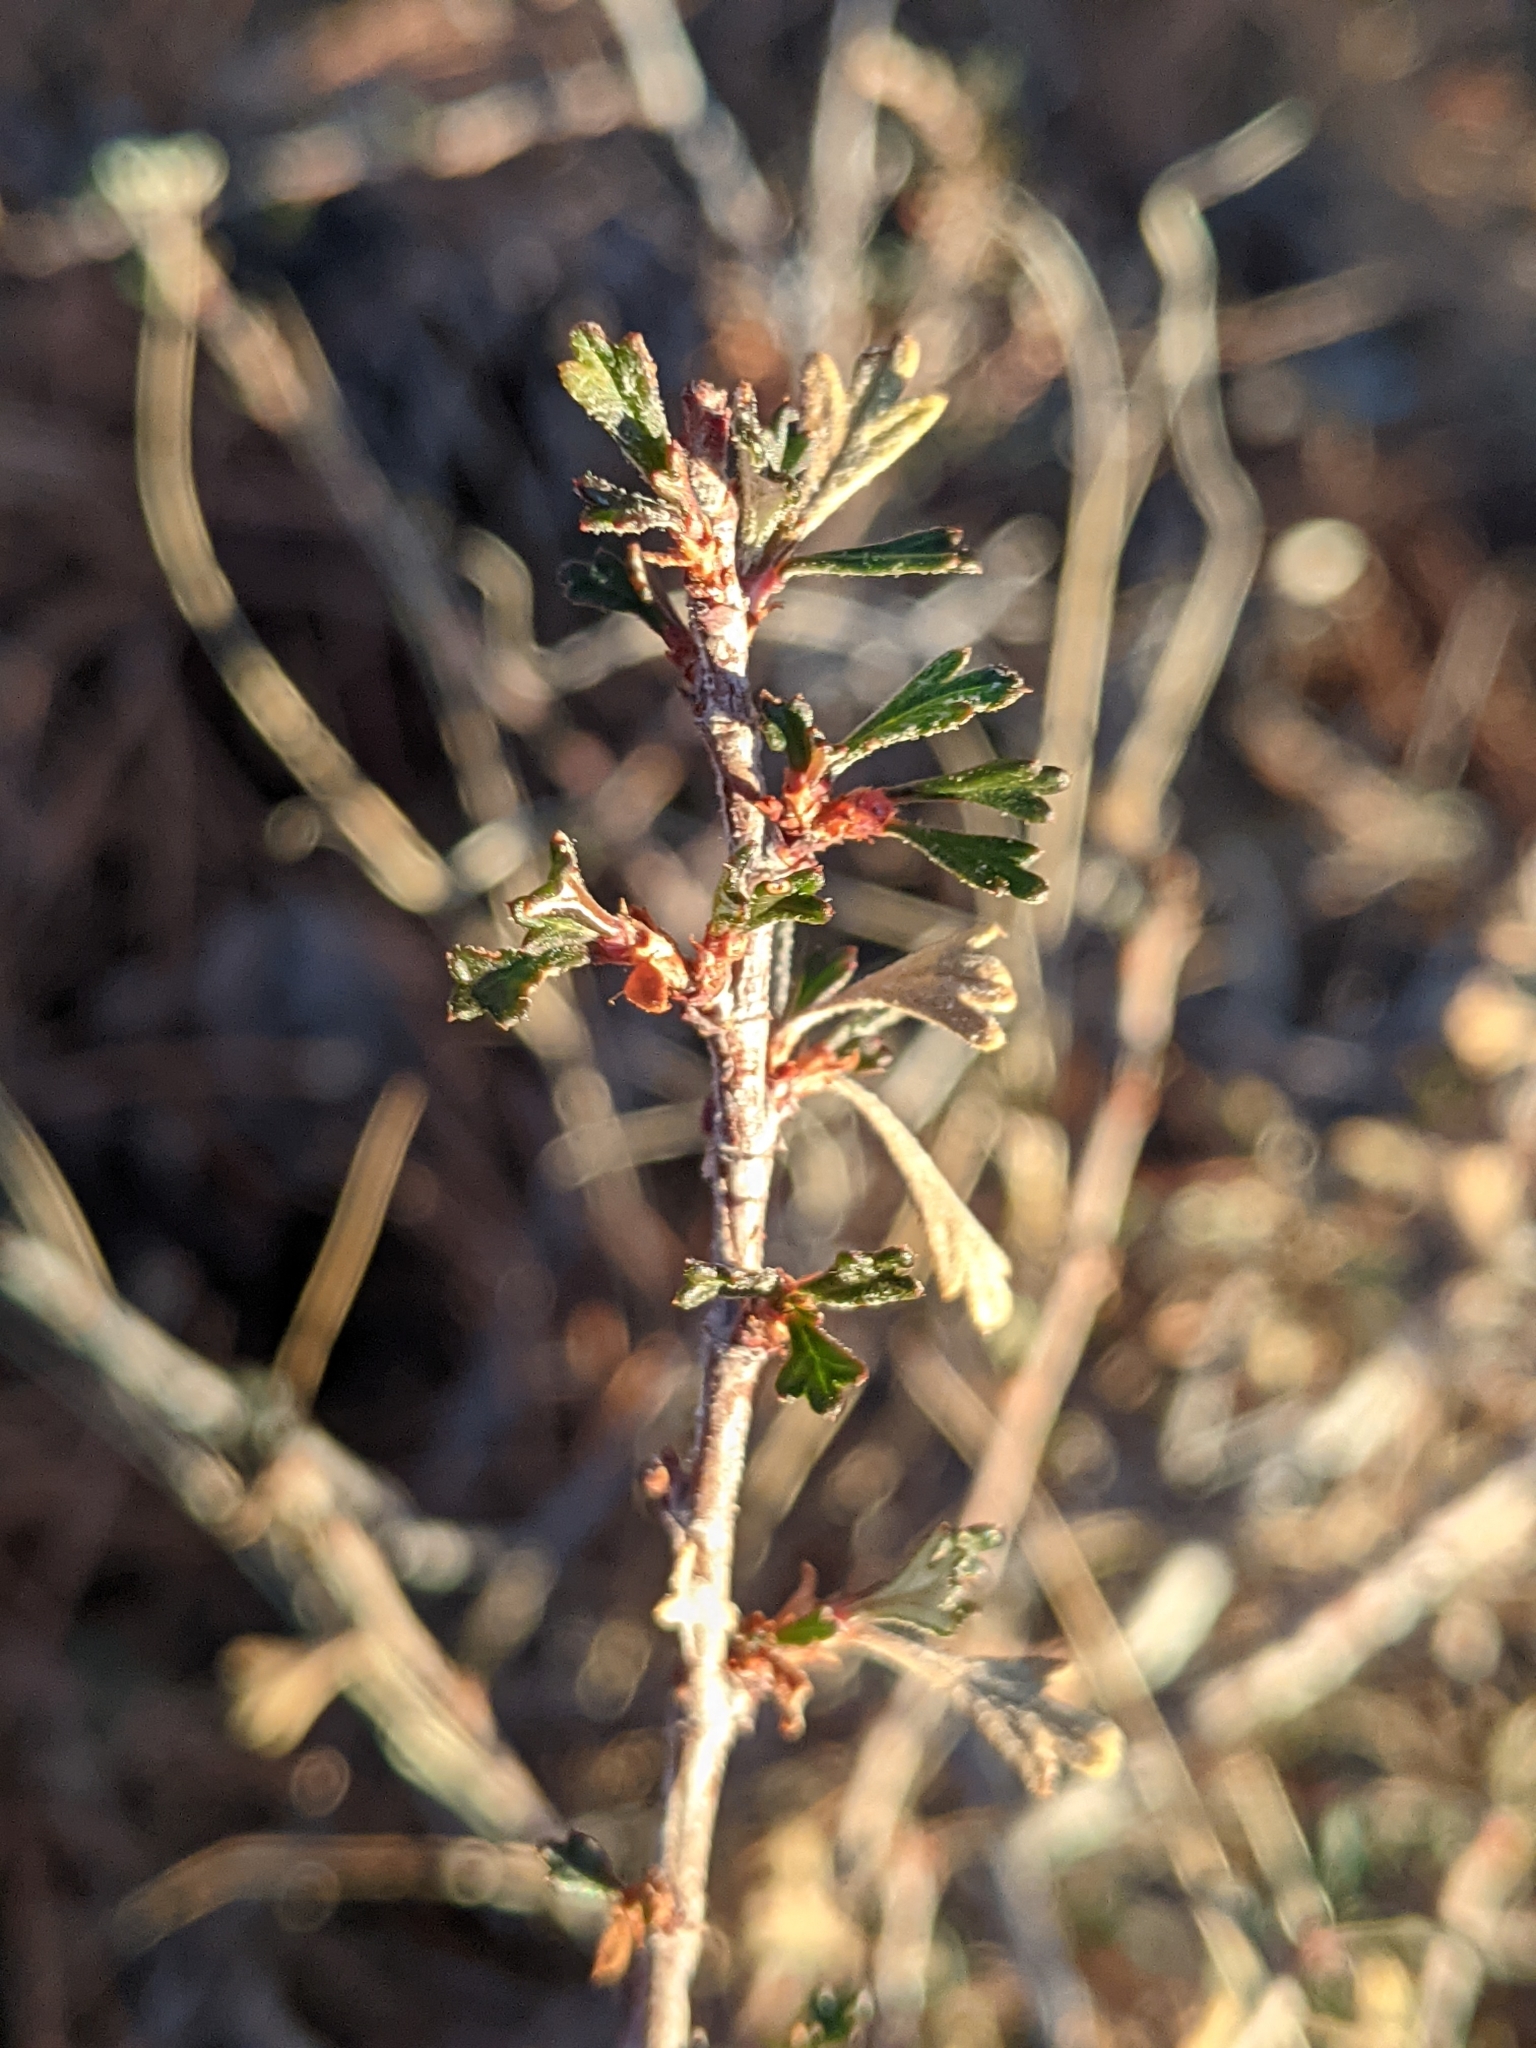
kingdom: Plantae
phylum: Tracheophyta
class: Magnoliopsida
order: Rosales
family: Rosaceae
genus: Purshia
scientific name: Purshia tridentata
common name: Antelope bitterbrush
